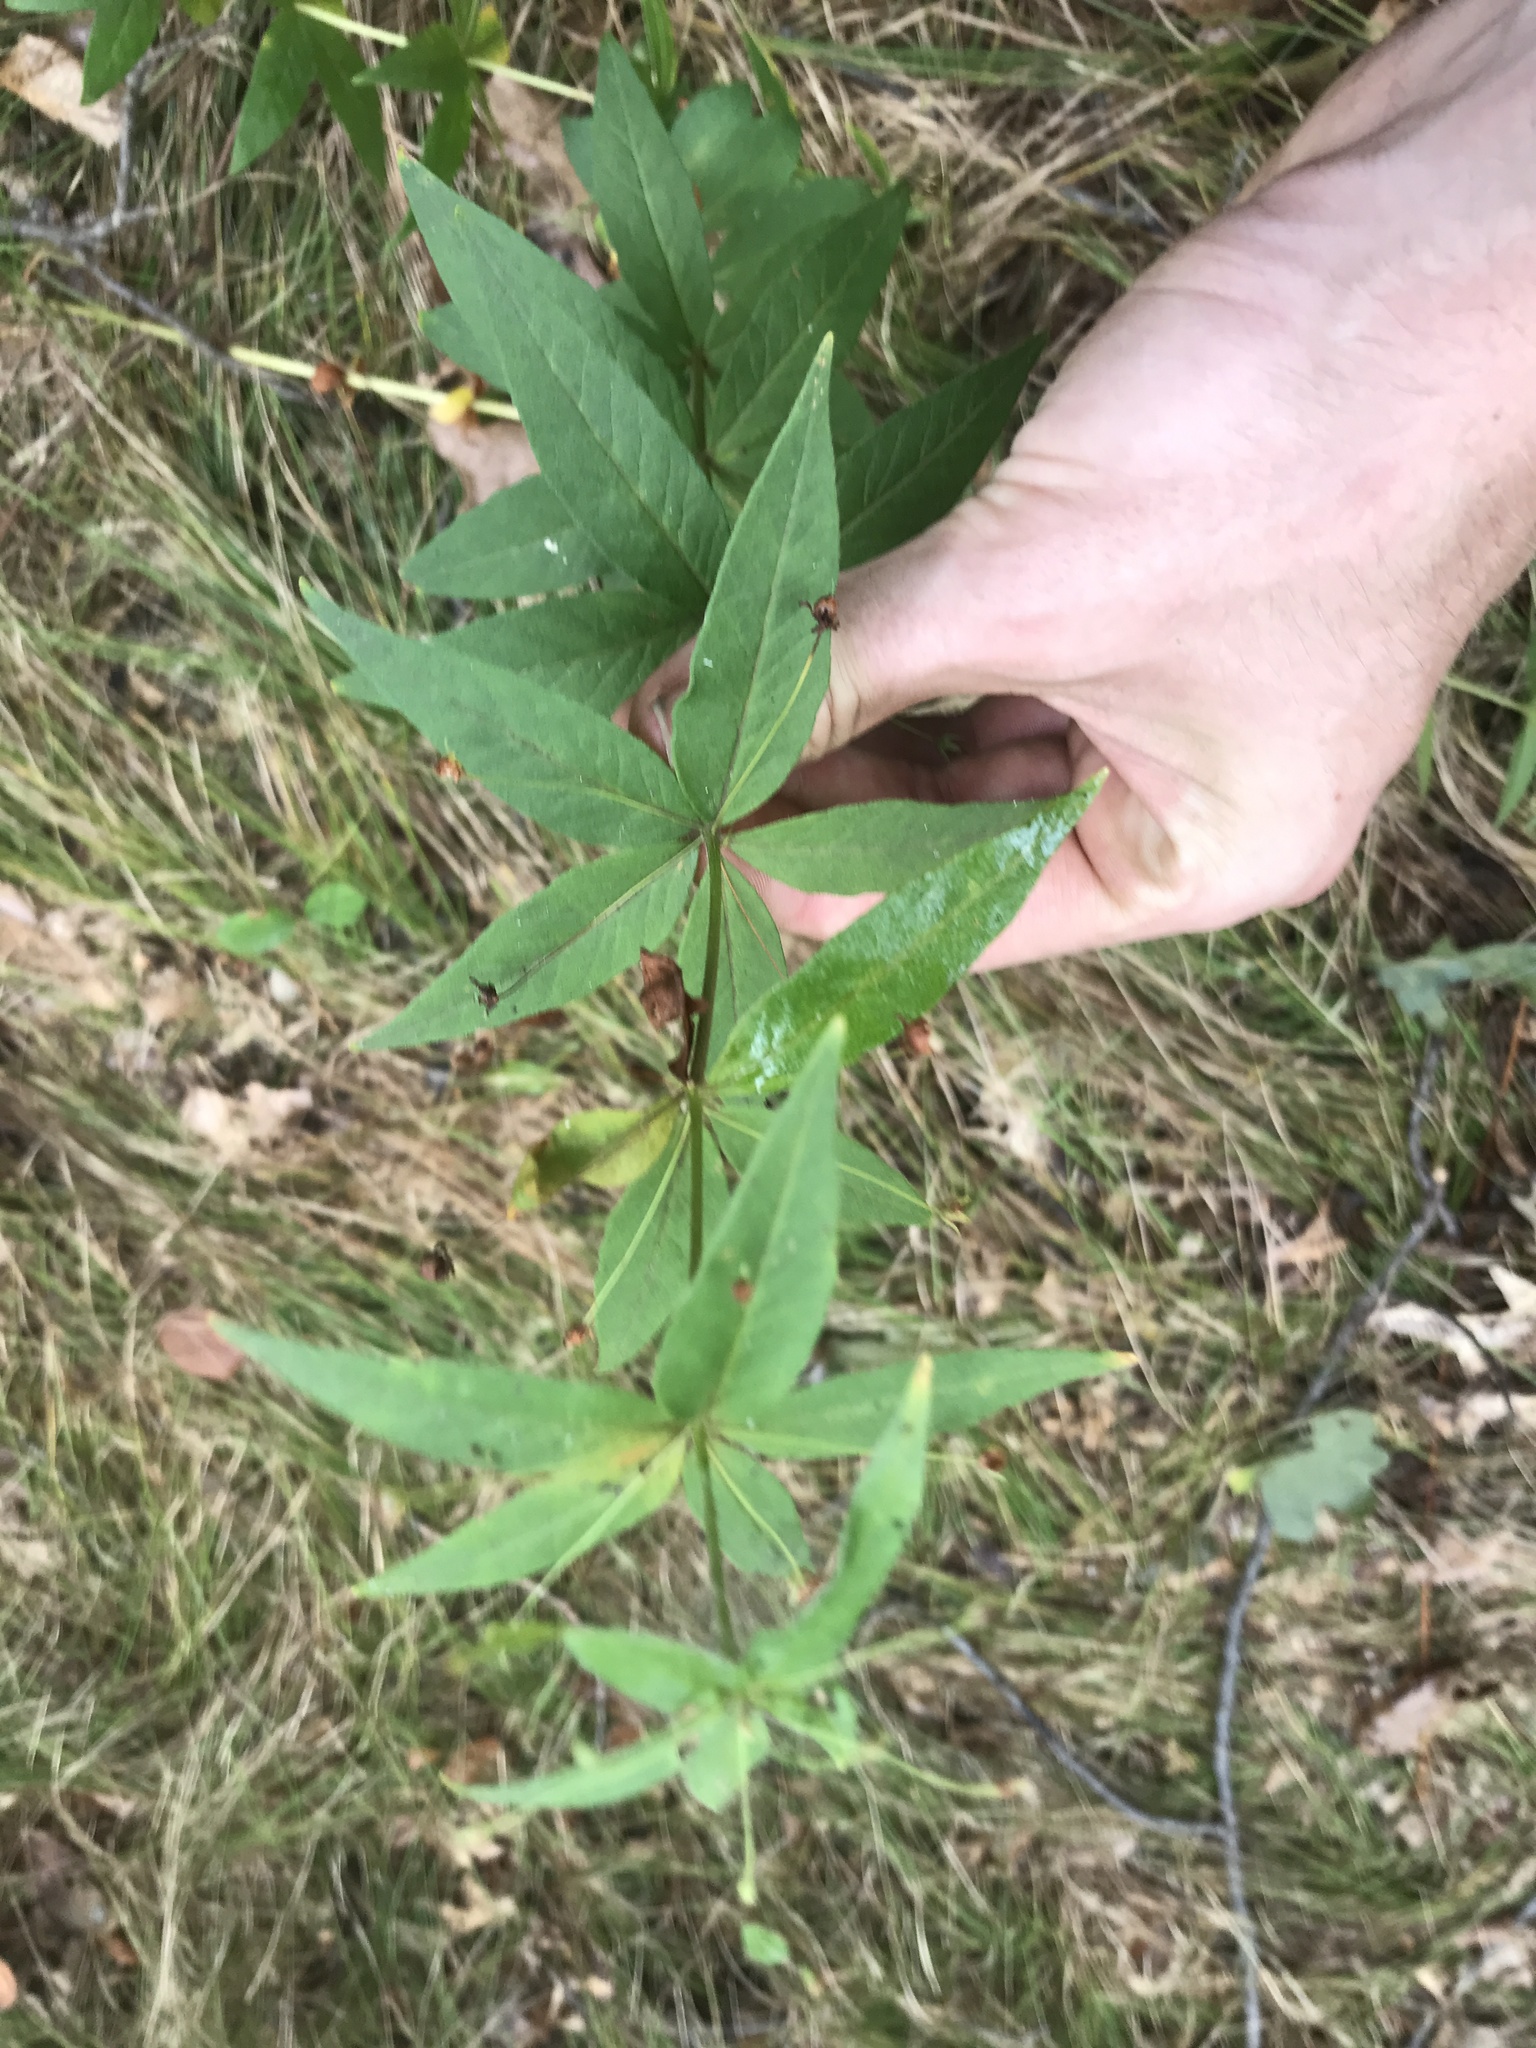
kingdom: Plantae
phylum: Tracheophyta
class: Magnoliopsida
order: Ericales
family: Primulaceae
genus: Lysimachia
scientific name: Lysimachia quadrifolia
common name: Whorled loosestrife
